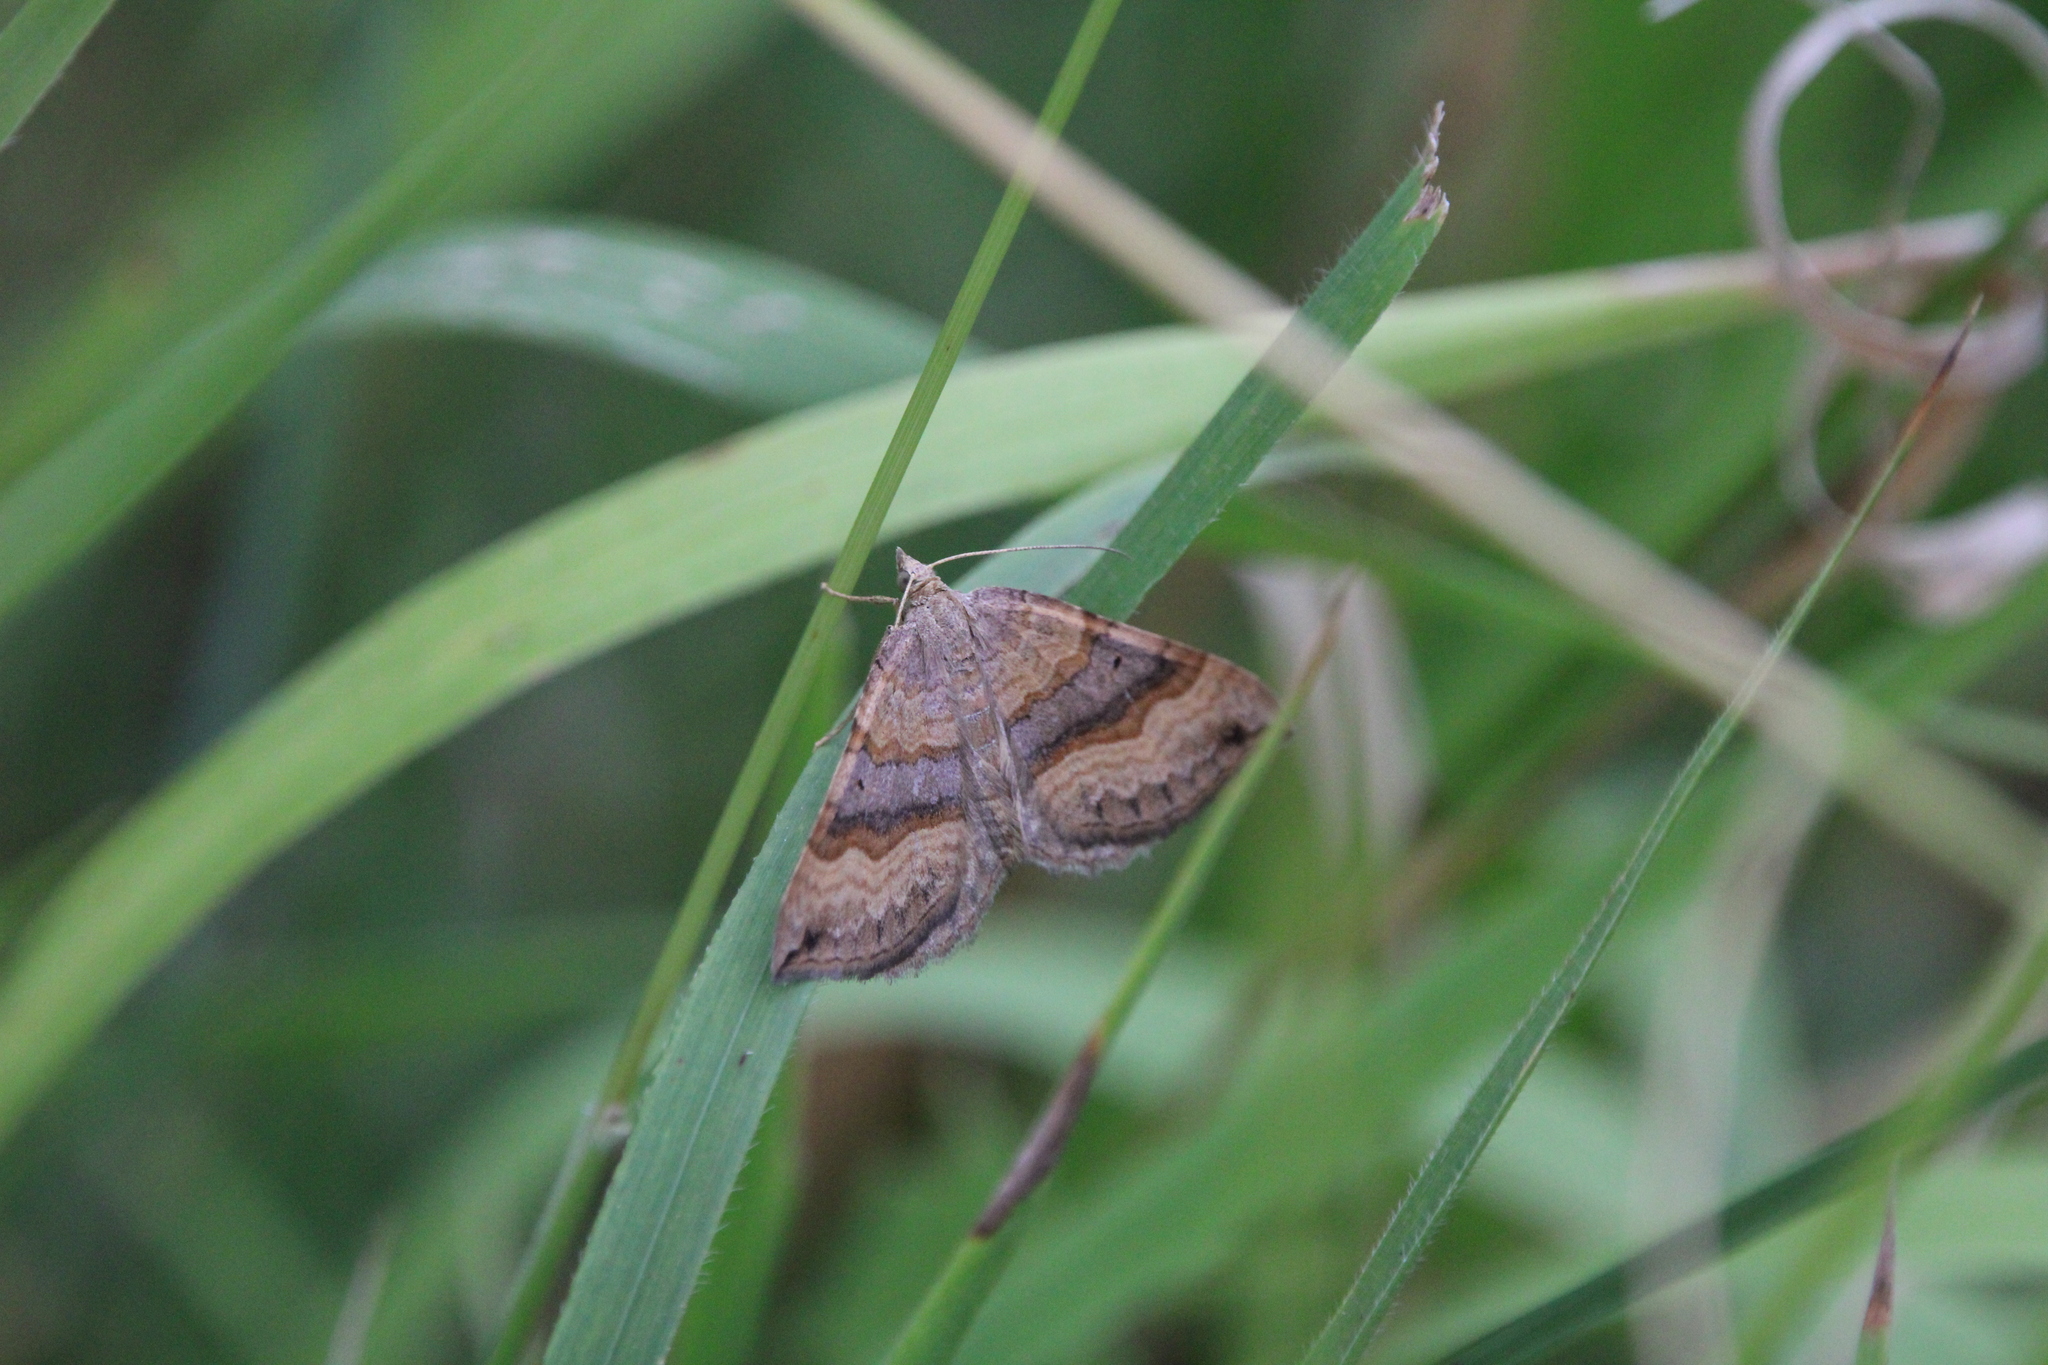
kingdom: Animalia
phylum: Arthropoda
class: Insecta
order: Lepidoptera
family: Geometridae
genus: Scotopteryx
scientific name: Scotopteryx chenopodiata
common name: Shaded broad-bar
